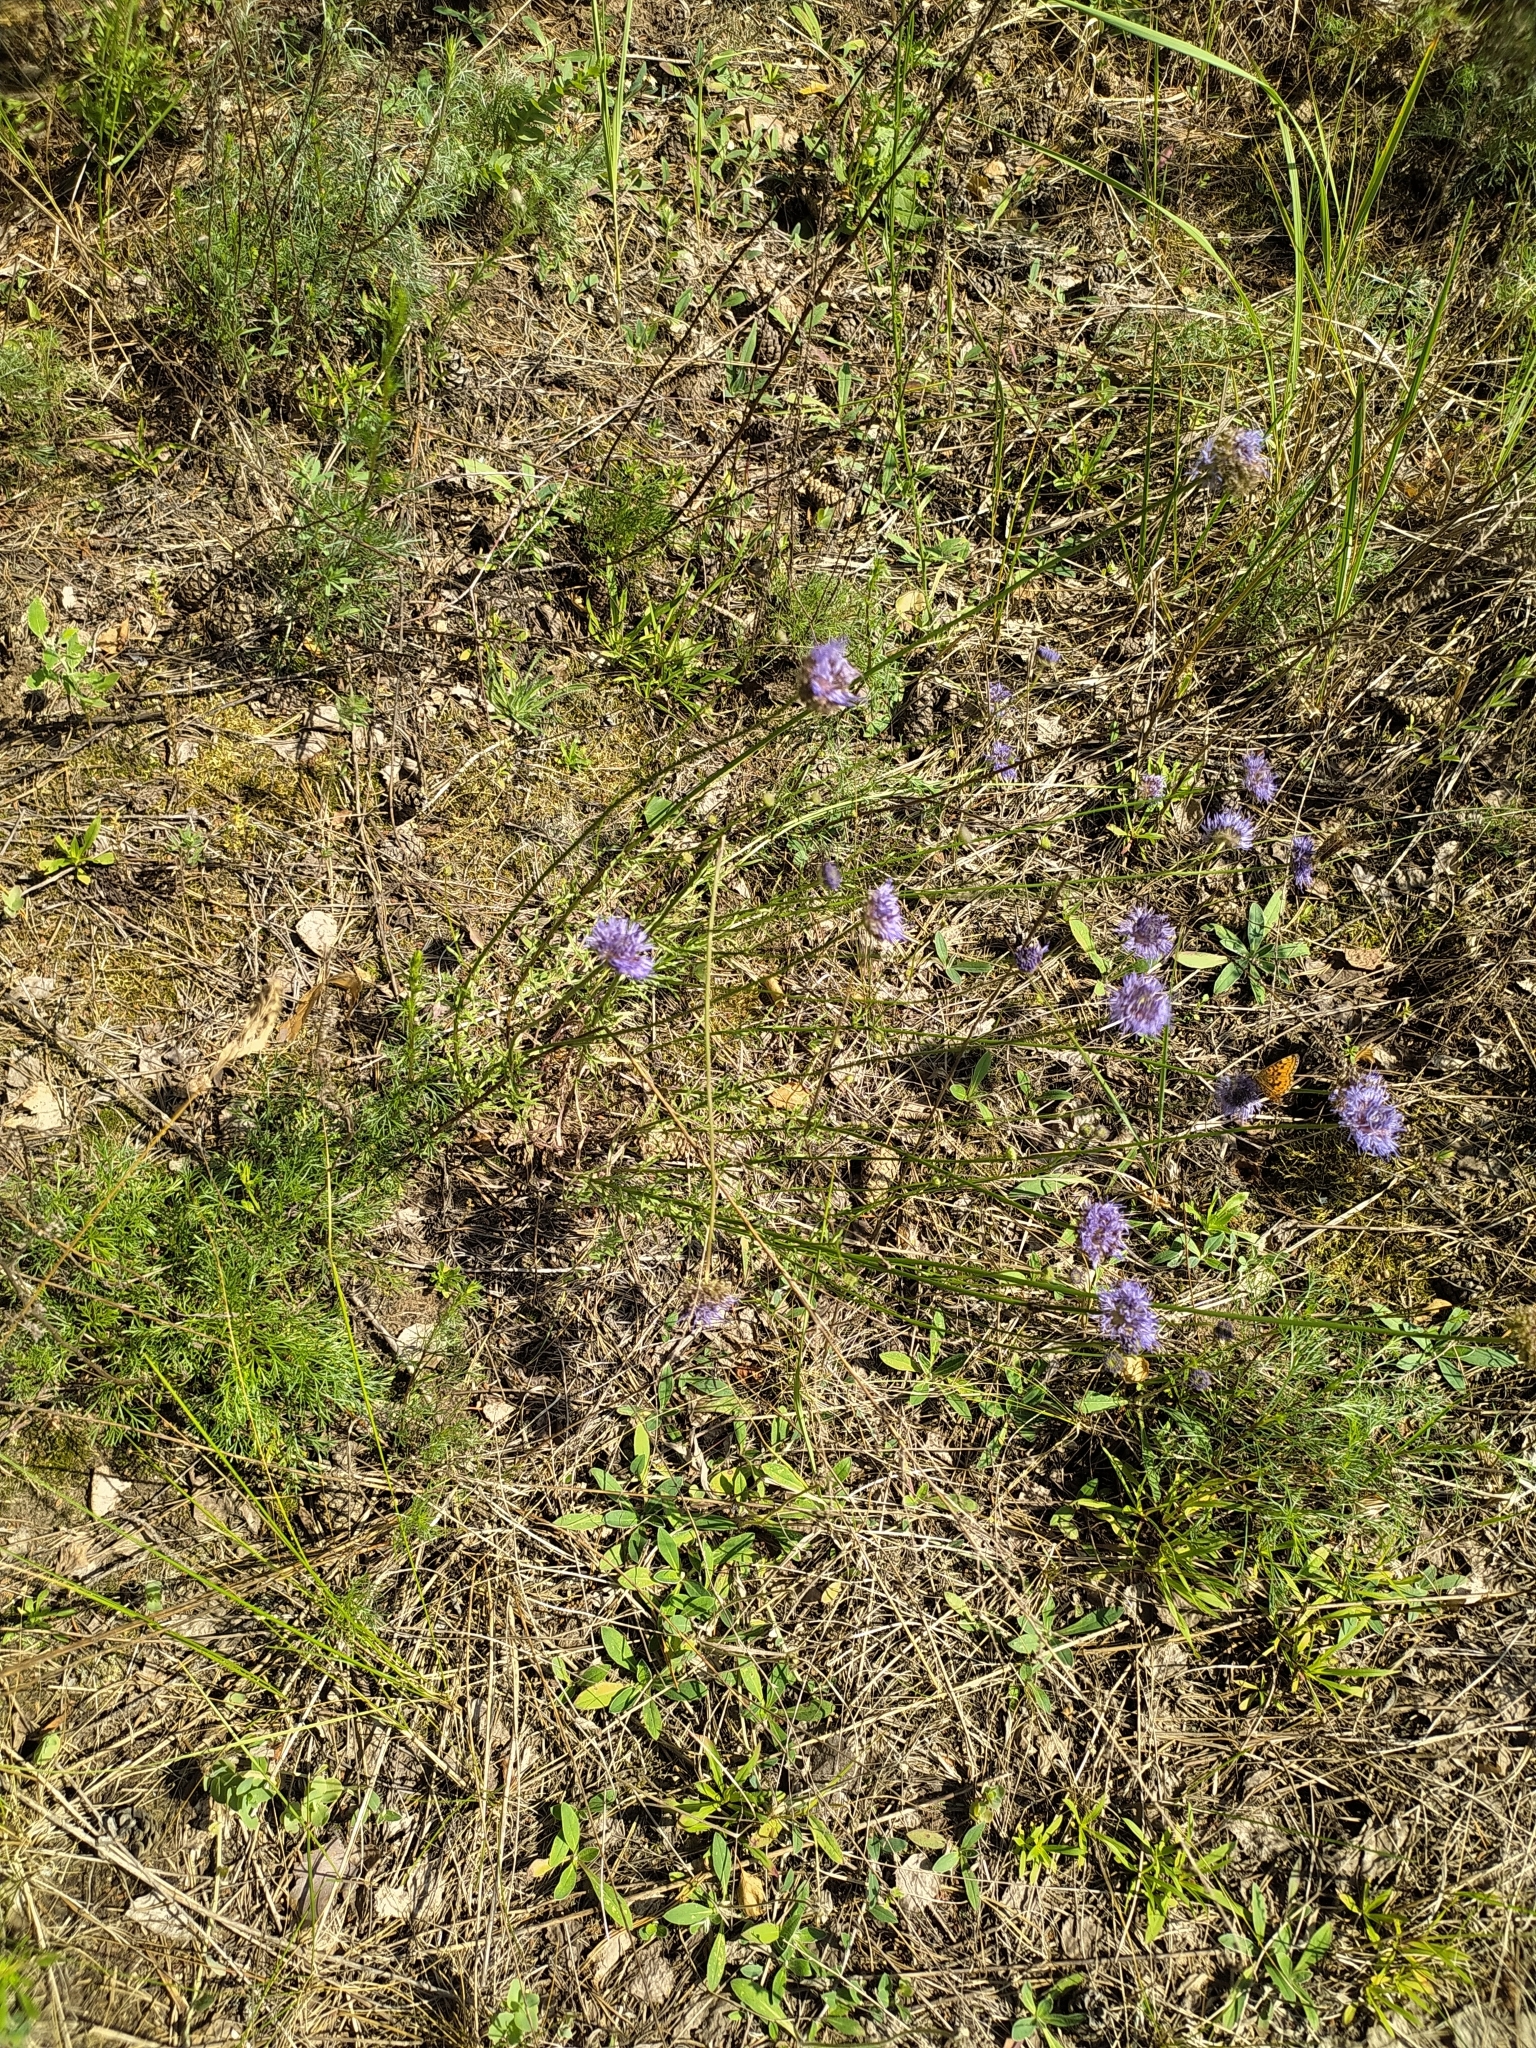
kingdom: Plantae
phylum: Tracheophyta
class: Magnoliopsida
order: Asterales
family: Campanulaceae
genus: Jasione
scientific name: Jasione montana
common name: Sheep's-bit
